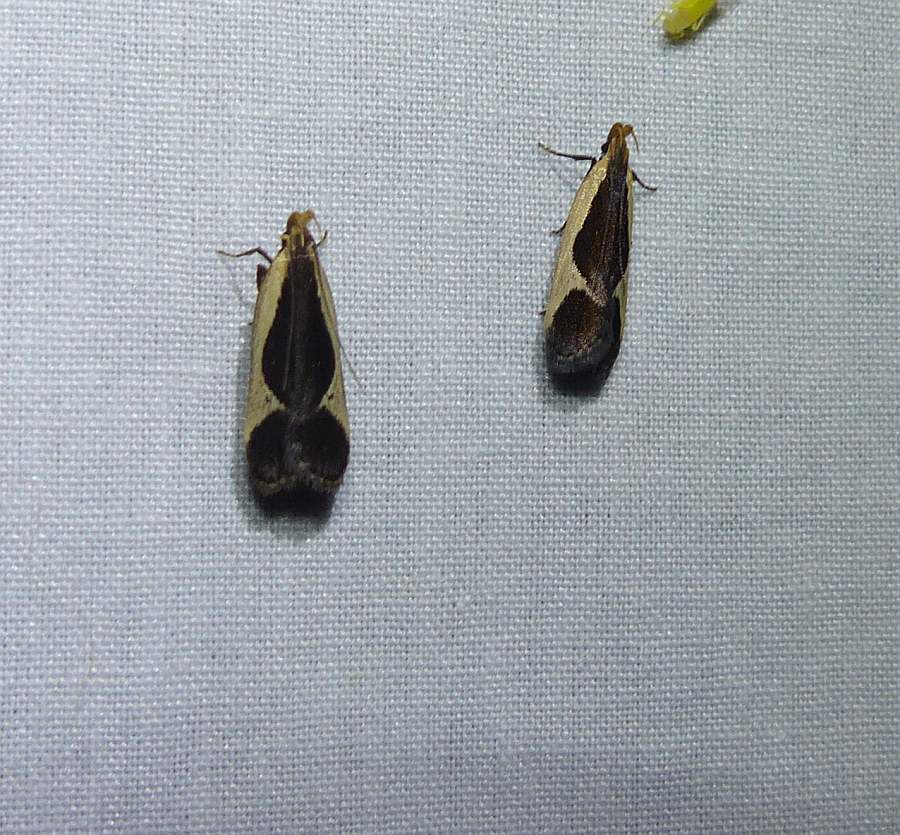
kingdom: Animalia
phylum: Arthropoda
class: Insecta
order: Lepidoptera
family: Gelechiidae
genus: Dichomeris
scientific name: Dichomeris flavocostella
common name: Cream-edged dichomeris moth
